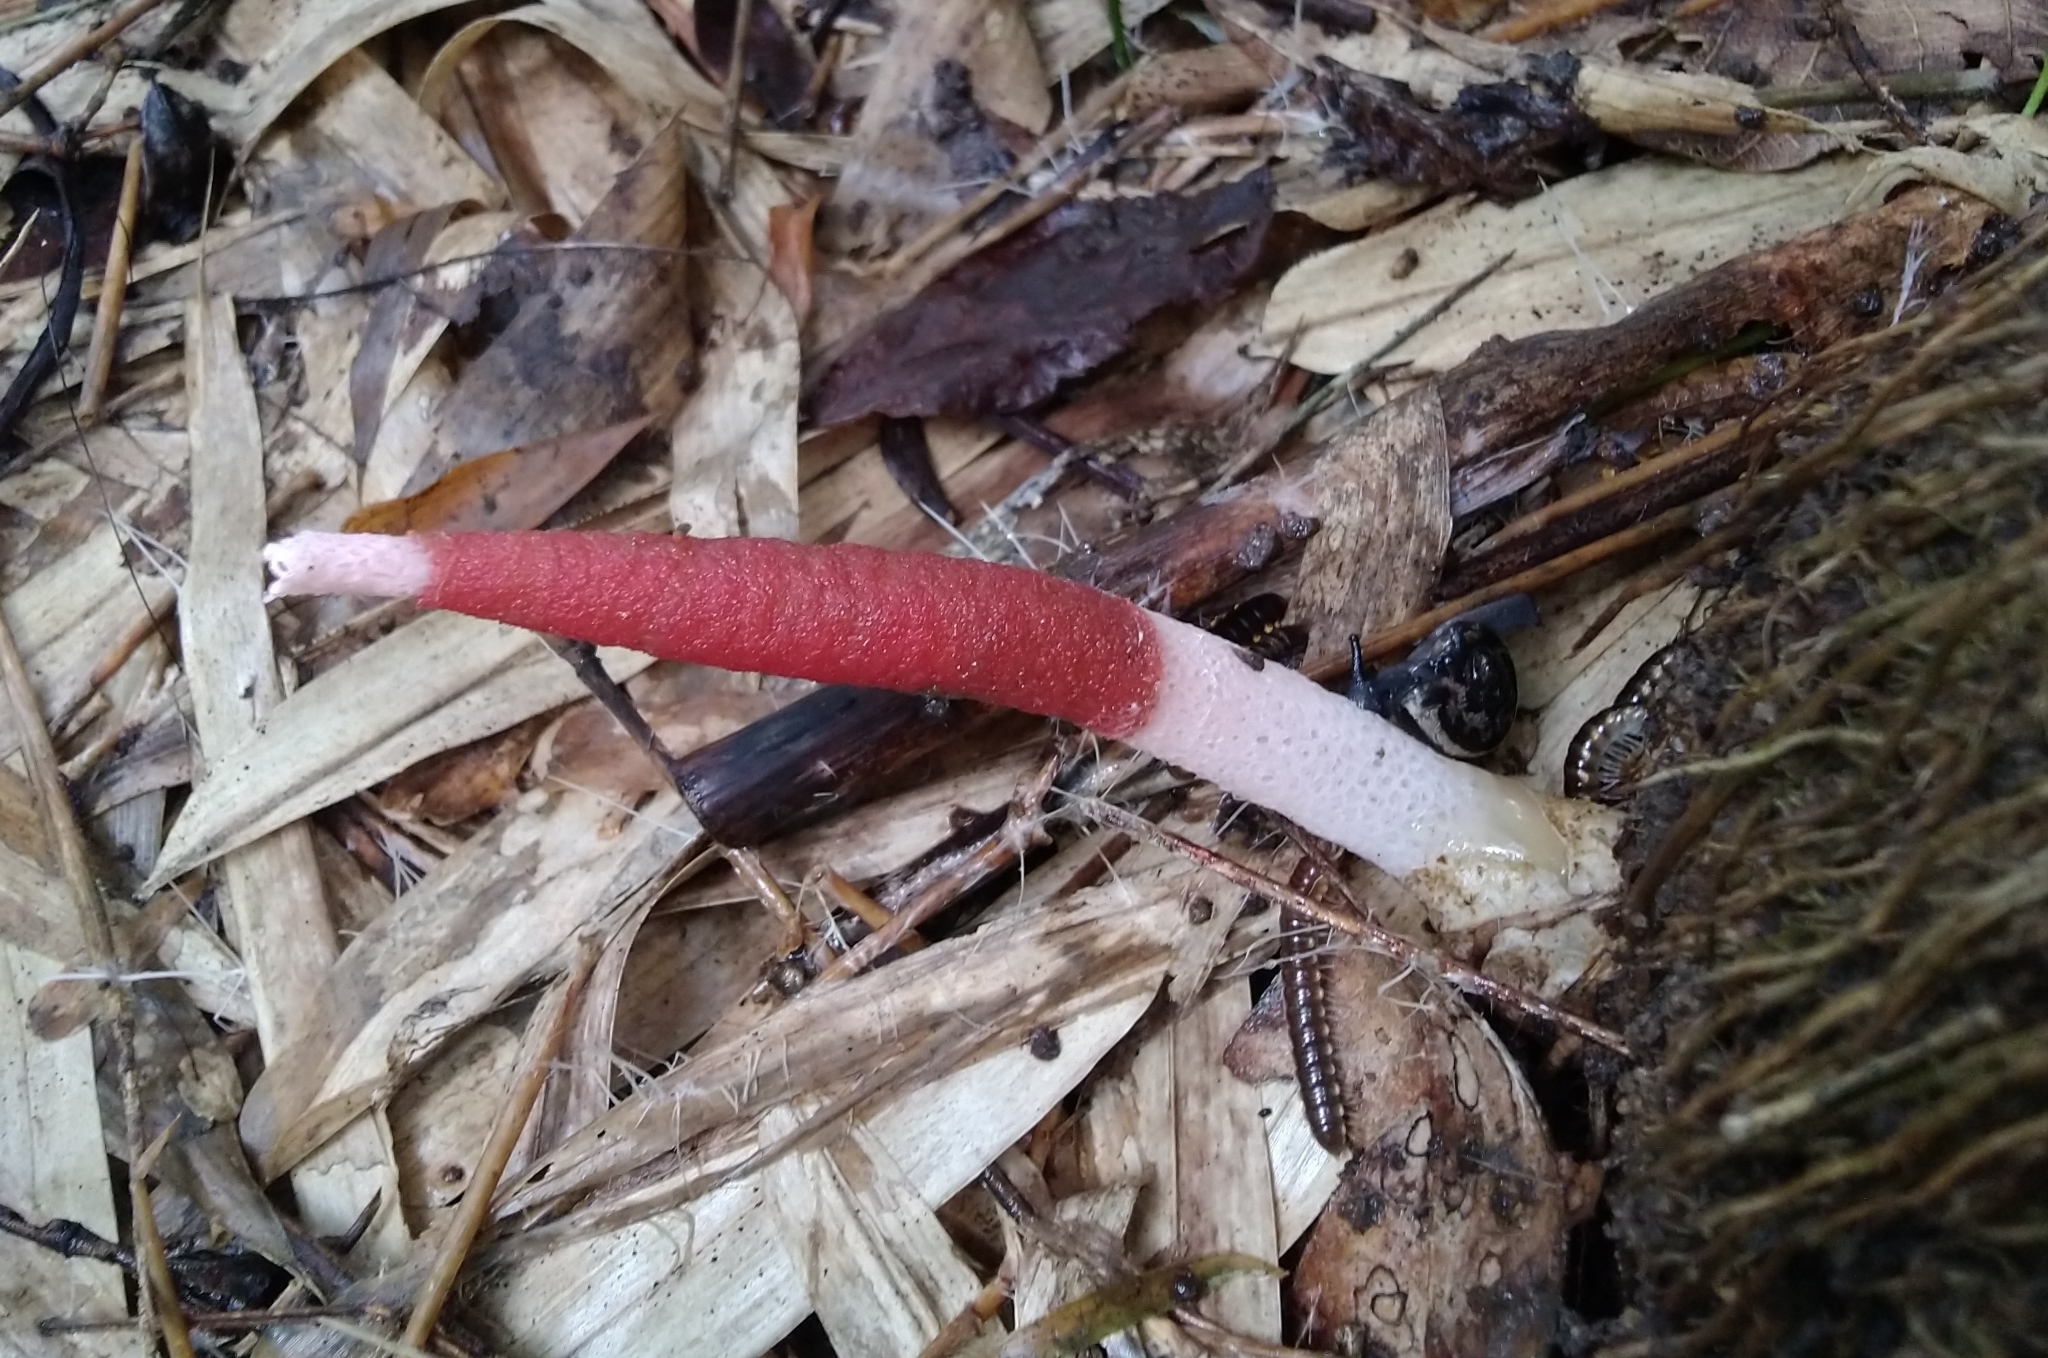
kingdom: Fungi
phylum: Basidiomycota
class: Agaricomycetes
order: Phallales
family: Phallaceae
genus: Mutinus
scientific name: Mutinus bambusinus
